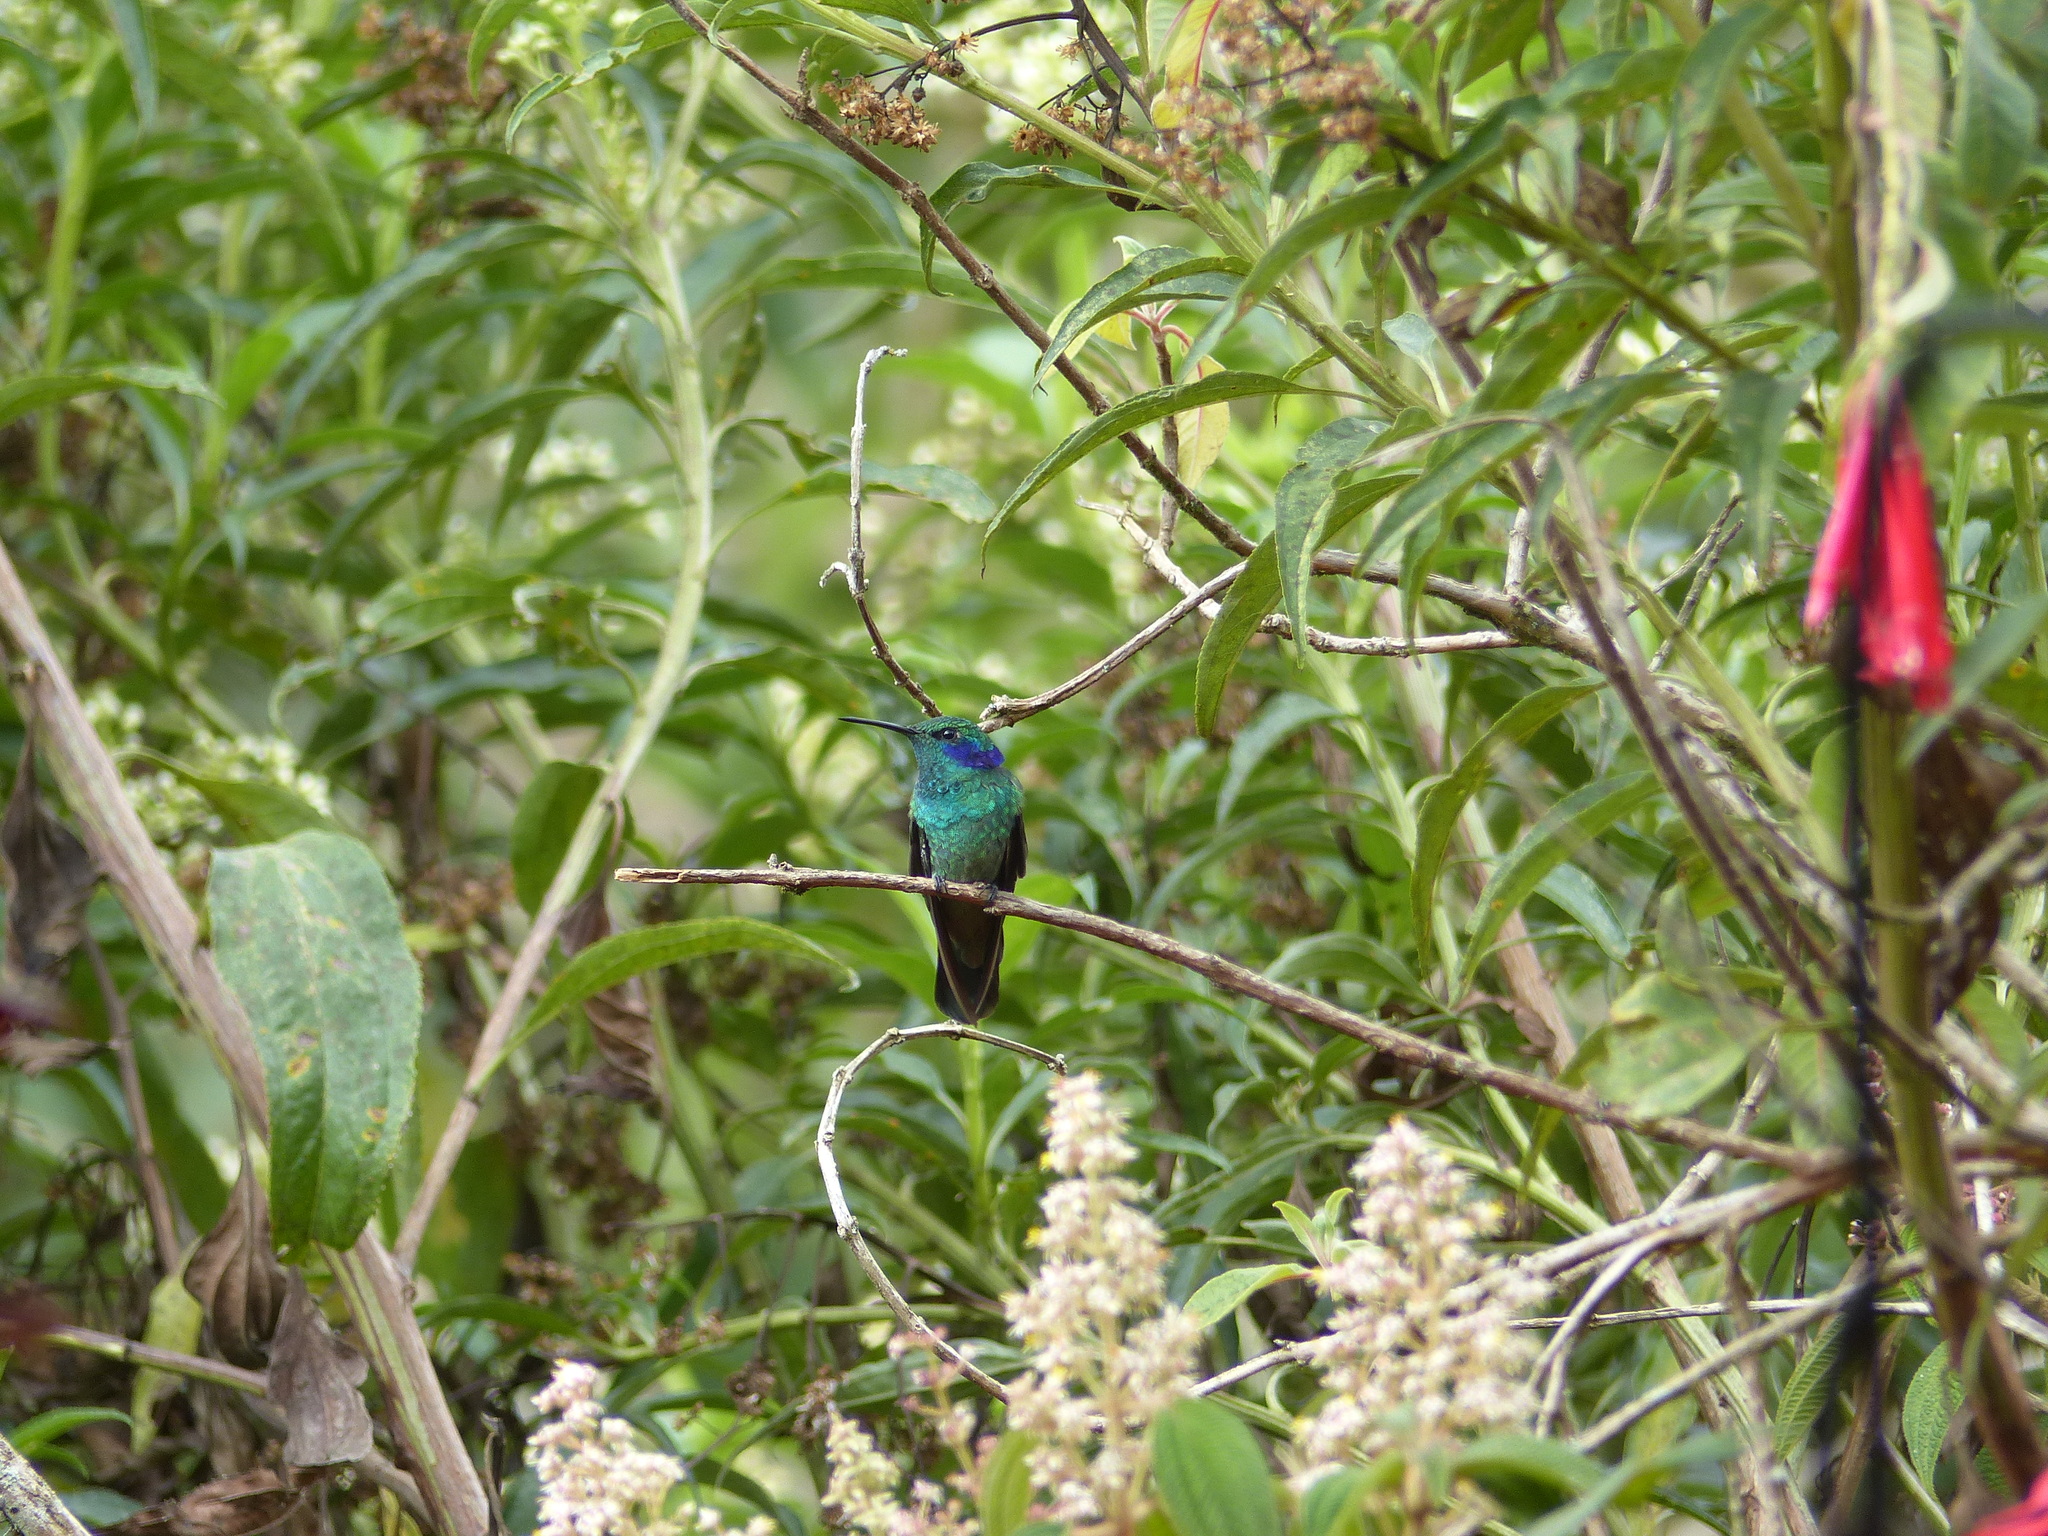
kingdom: Animalia
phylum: Chordata
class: Aves
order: Apodiformes
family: Trochilidae
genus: Colibri
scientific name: Colibri cyanotus
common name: Lesser violetear
